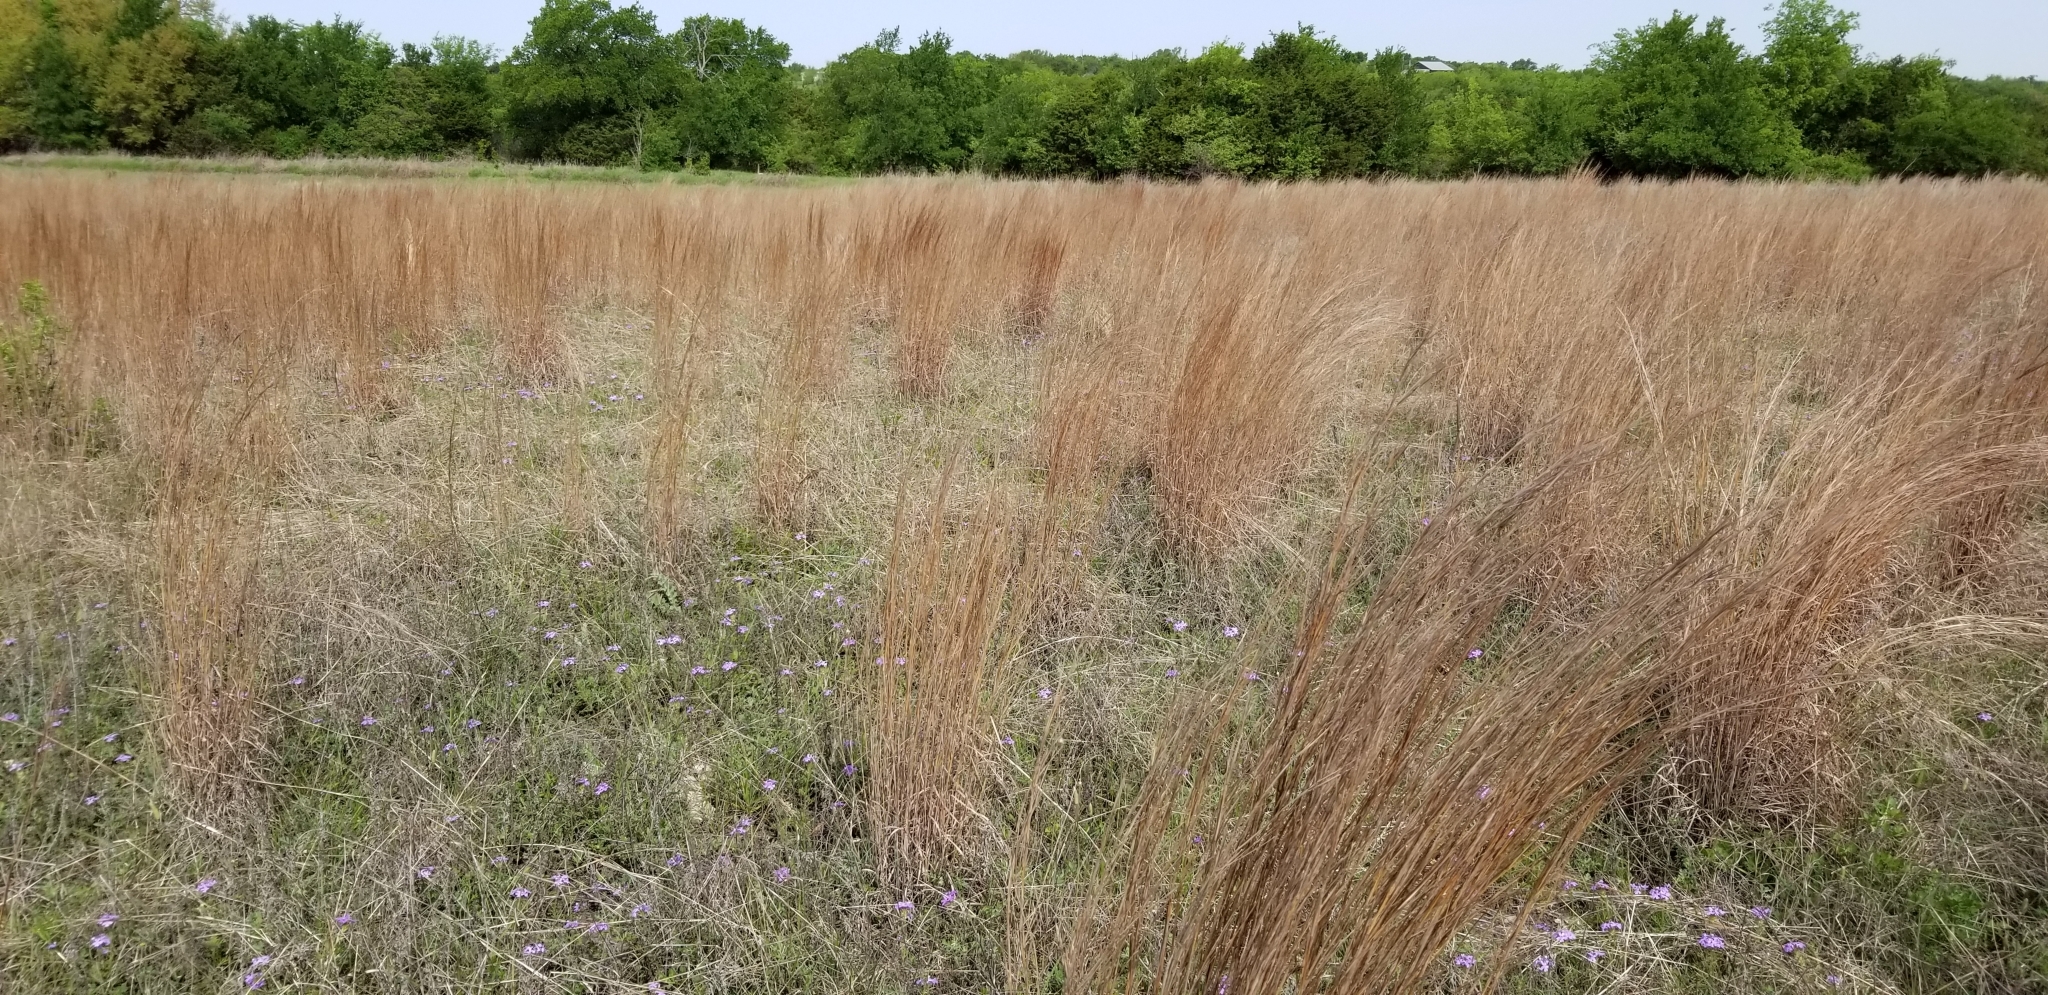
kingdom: Plantae
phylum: Tracheophyta
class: Liliopsida
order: Poales
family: Poaceae
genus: Schizachyrium
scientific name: Schizachyrium scoparium
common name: Little bluestem
